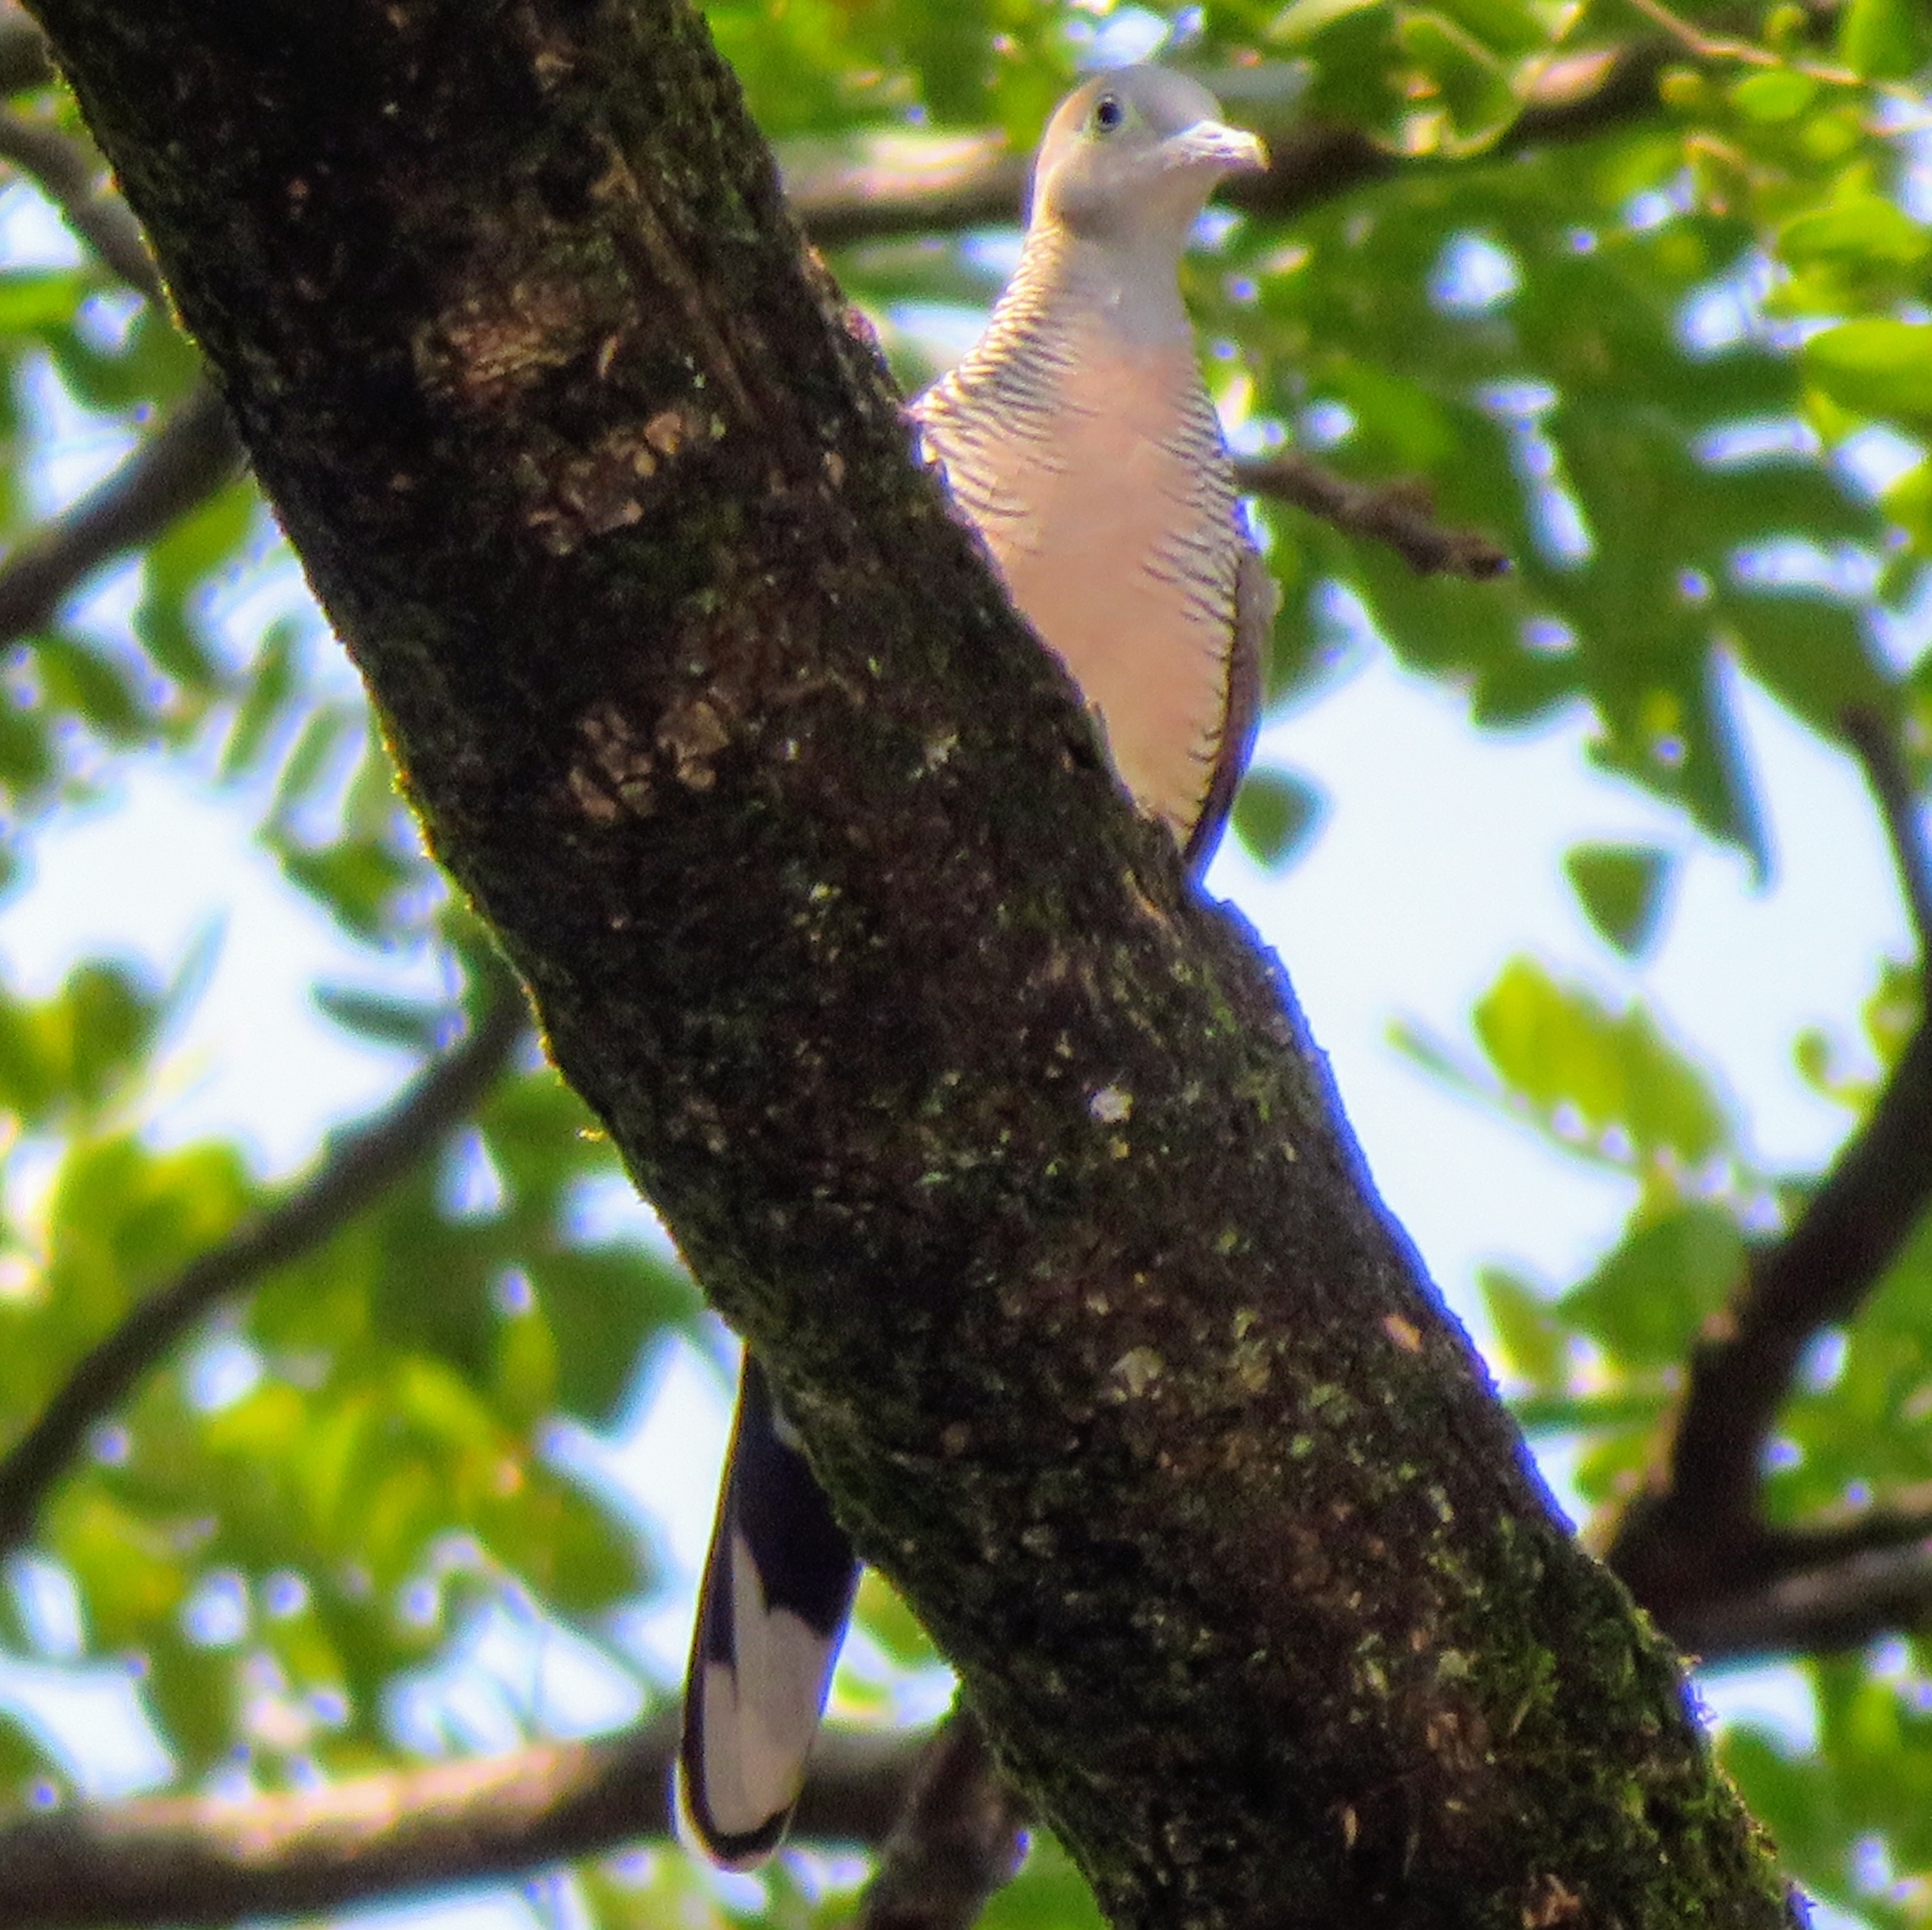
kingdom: Animalia
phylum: Chordata
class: Aves
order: Columbiformes
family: Columbidae
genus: Geopelia
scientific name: Geopelia striata
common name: Zebra dove
